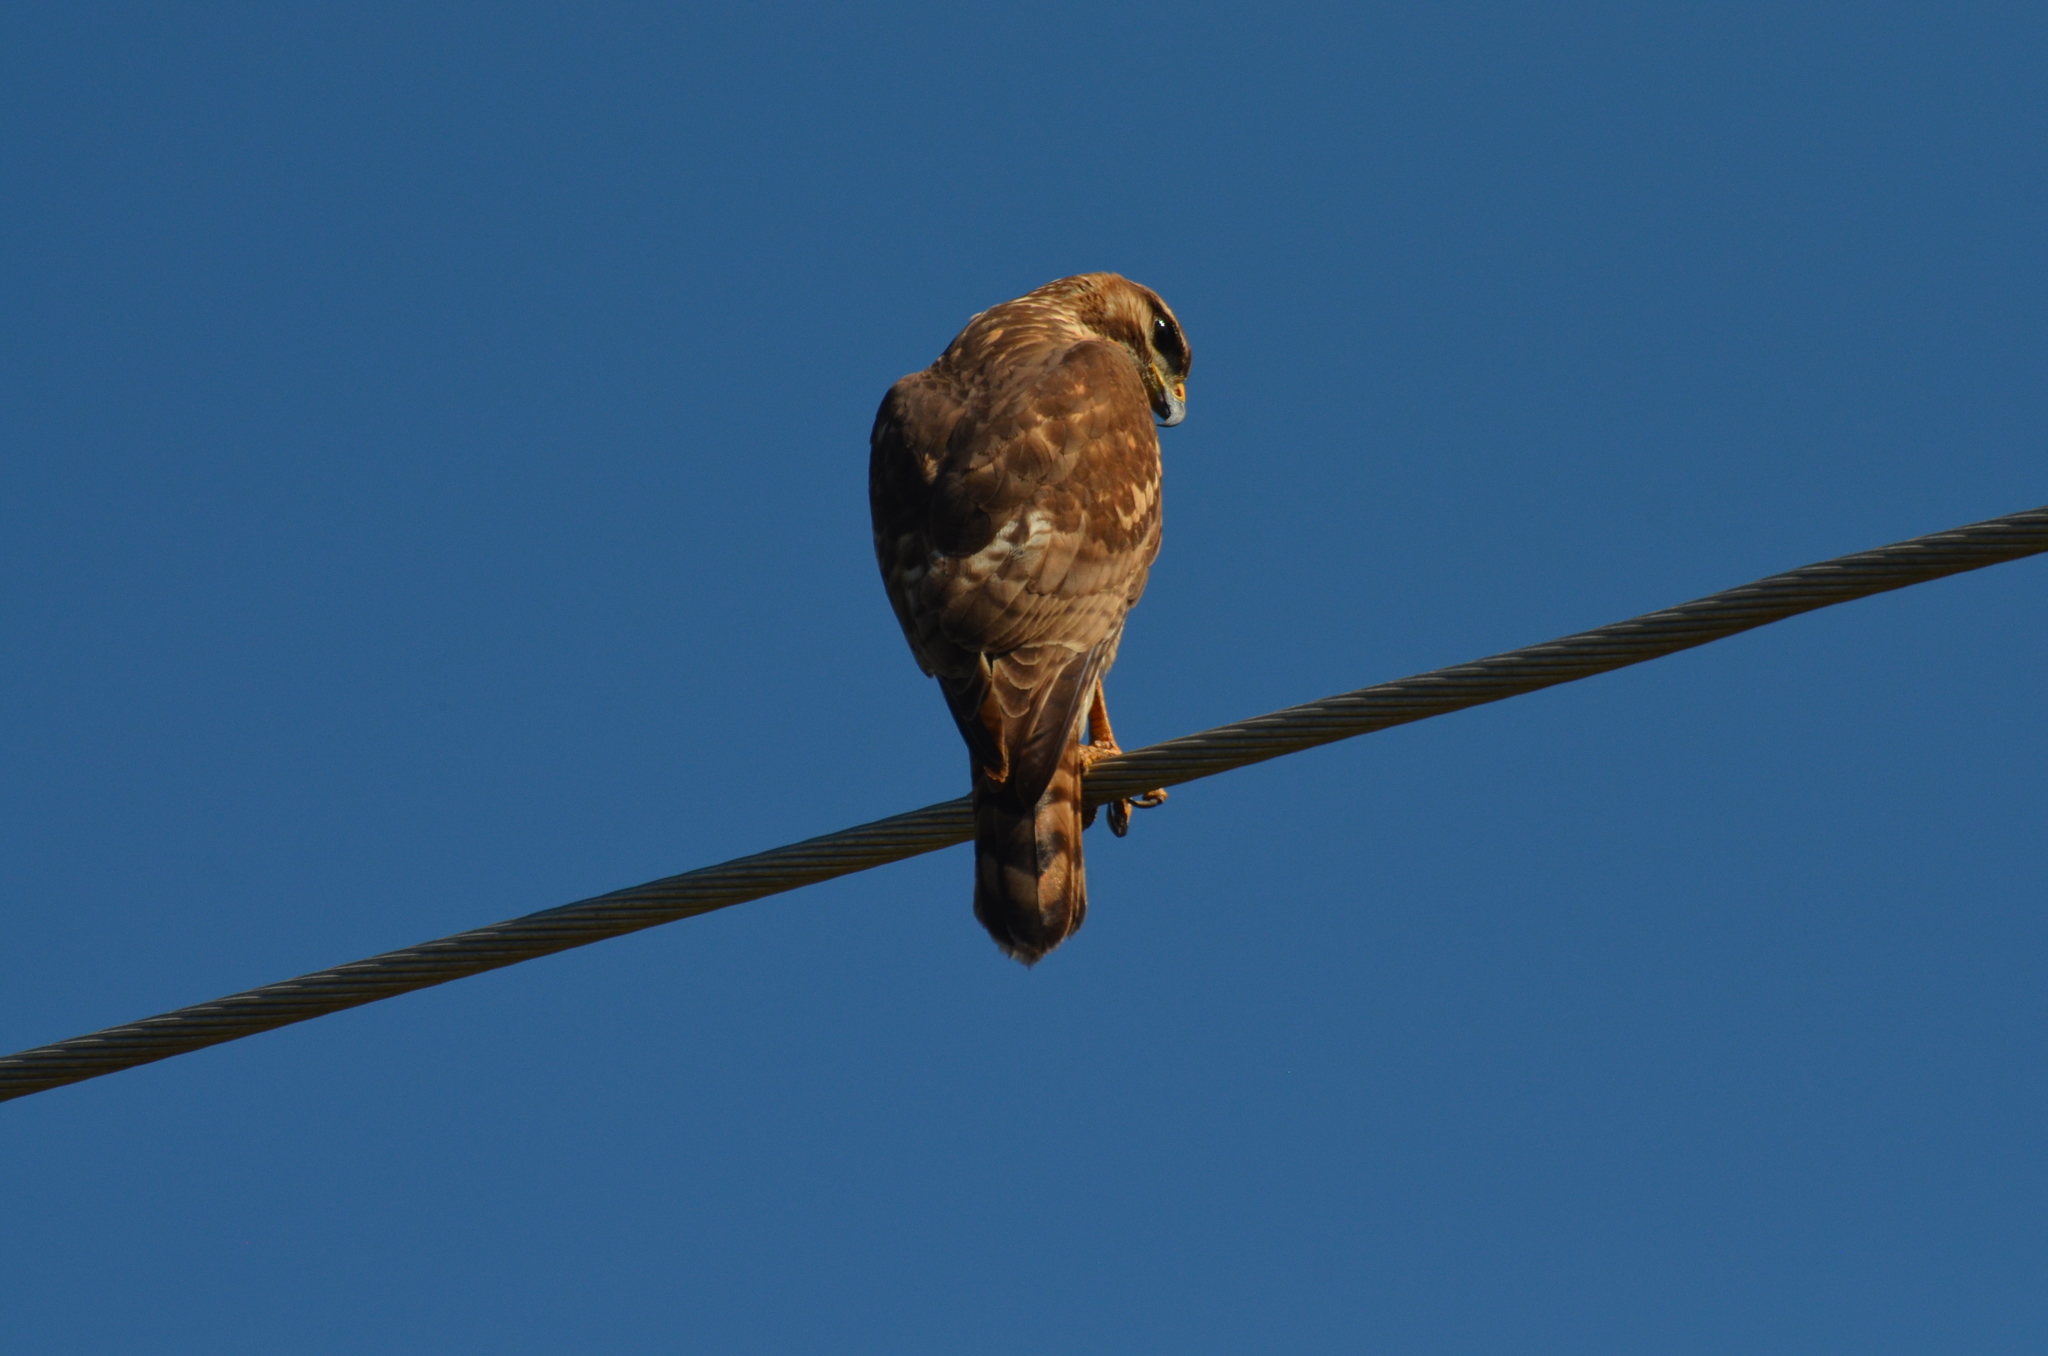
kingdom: Animalia
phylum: Chordata
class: Aves
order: Accipitriformes
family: Accipitridae
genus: Buteo
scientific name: Buteo nitidus
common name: Grey-lined hawk
